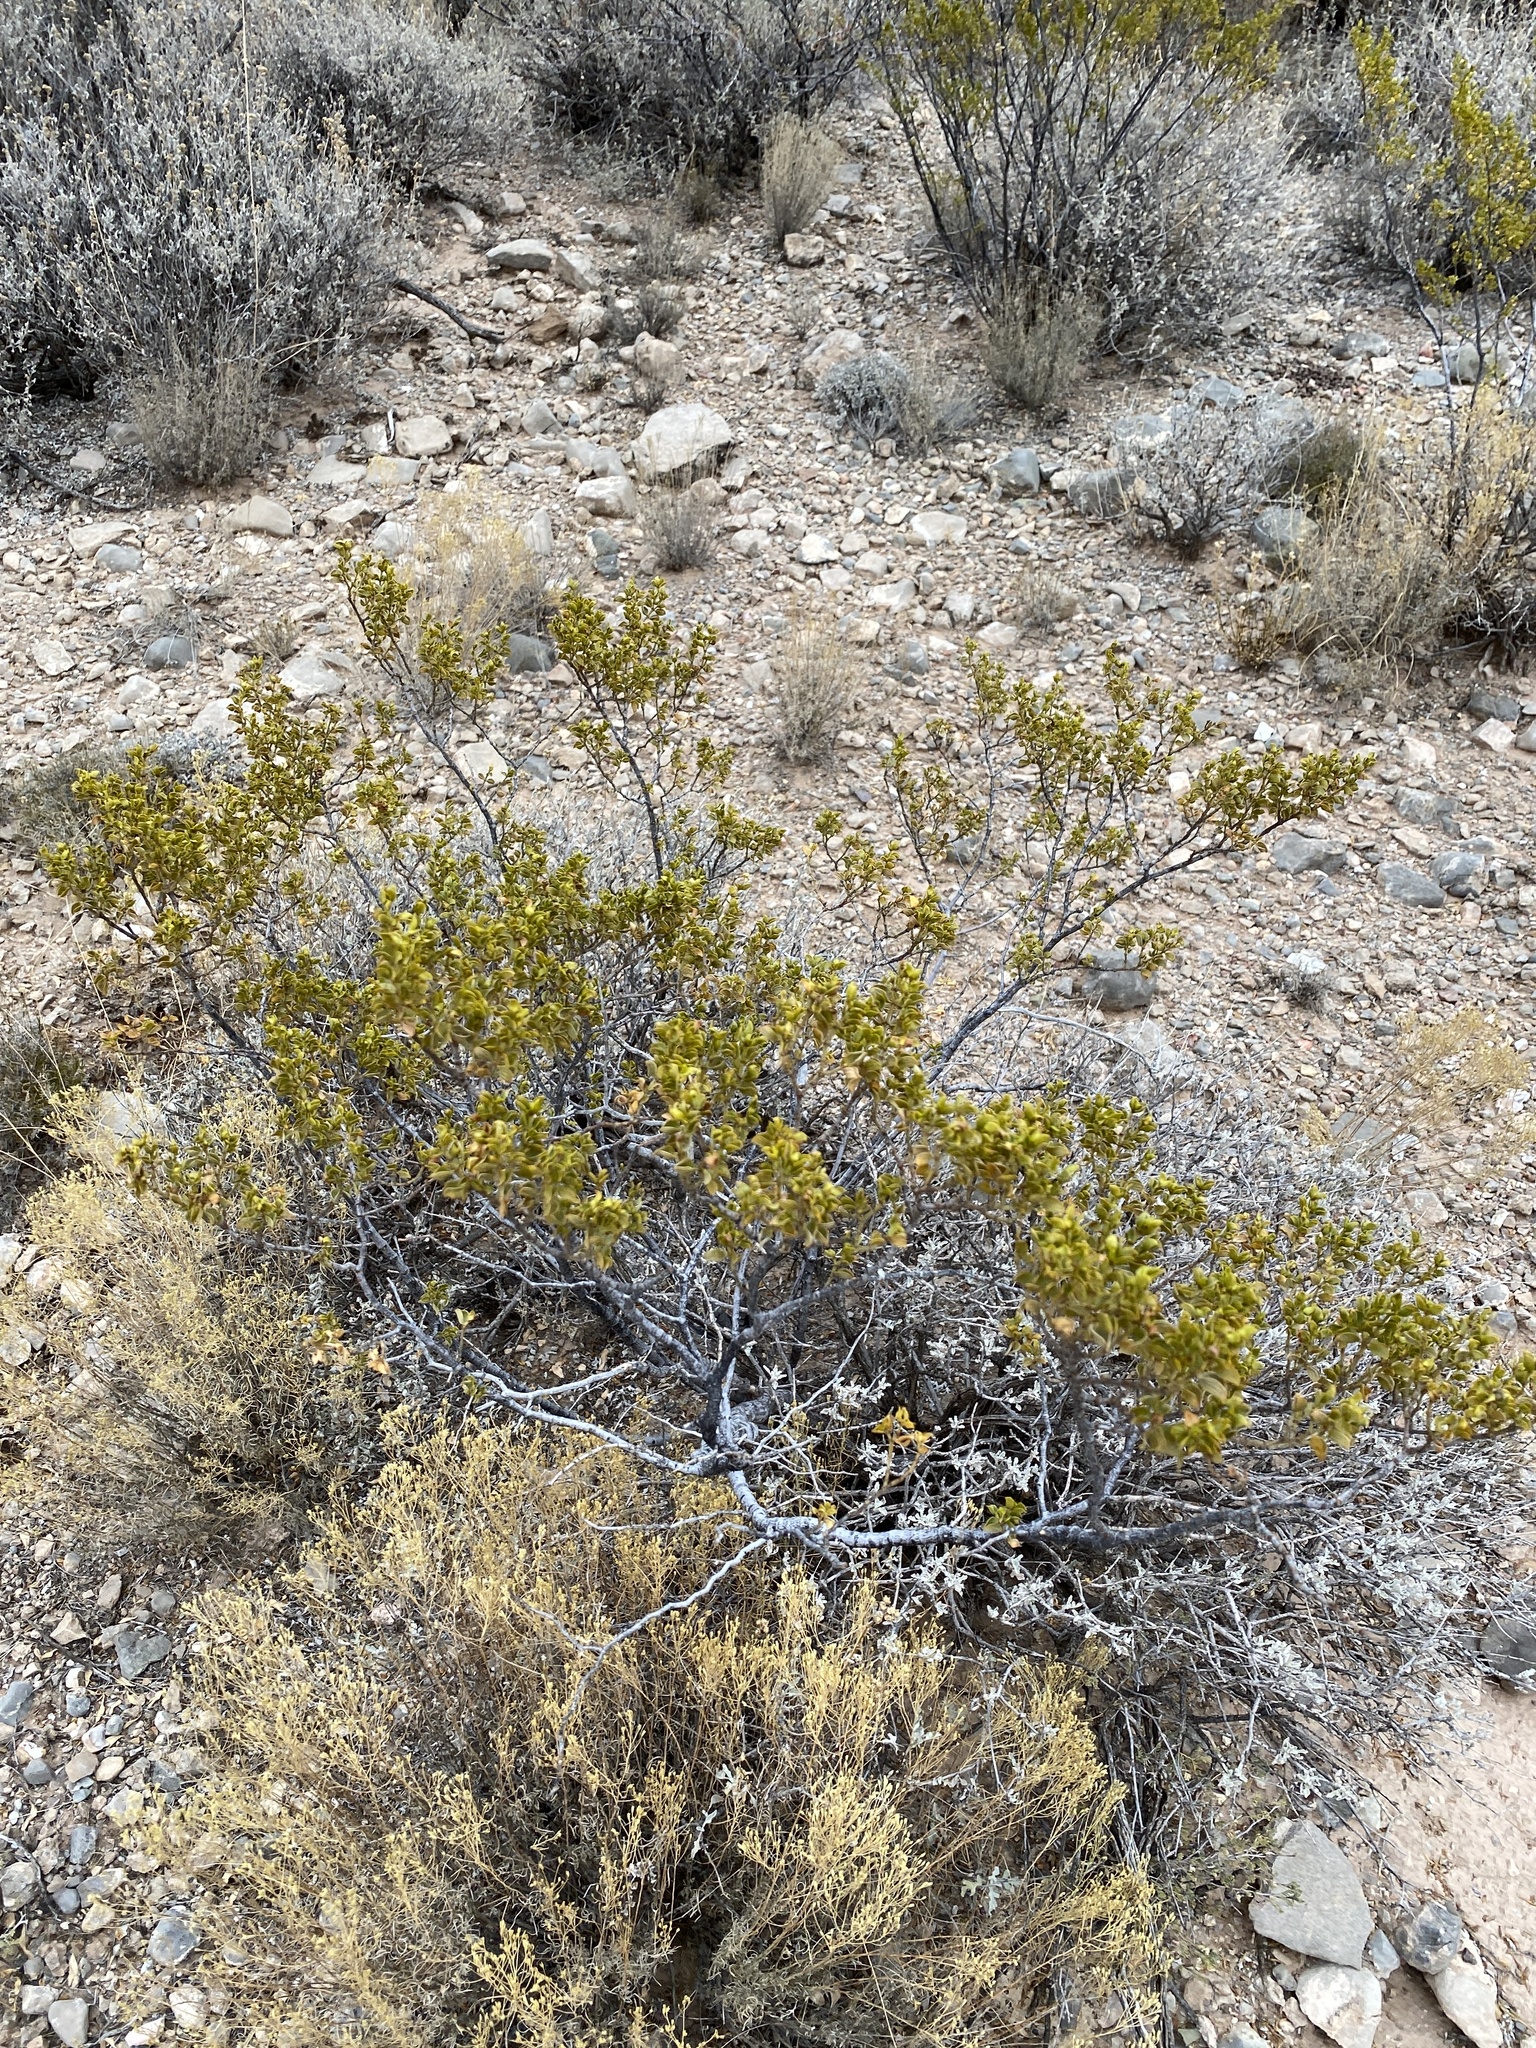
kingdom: Plantae
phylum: Tracheophyta
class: Magnoliopsida
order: Zygophyllales
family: Zygophyllaceae
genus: Larrea
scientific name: Larrea tridentata
